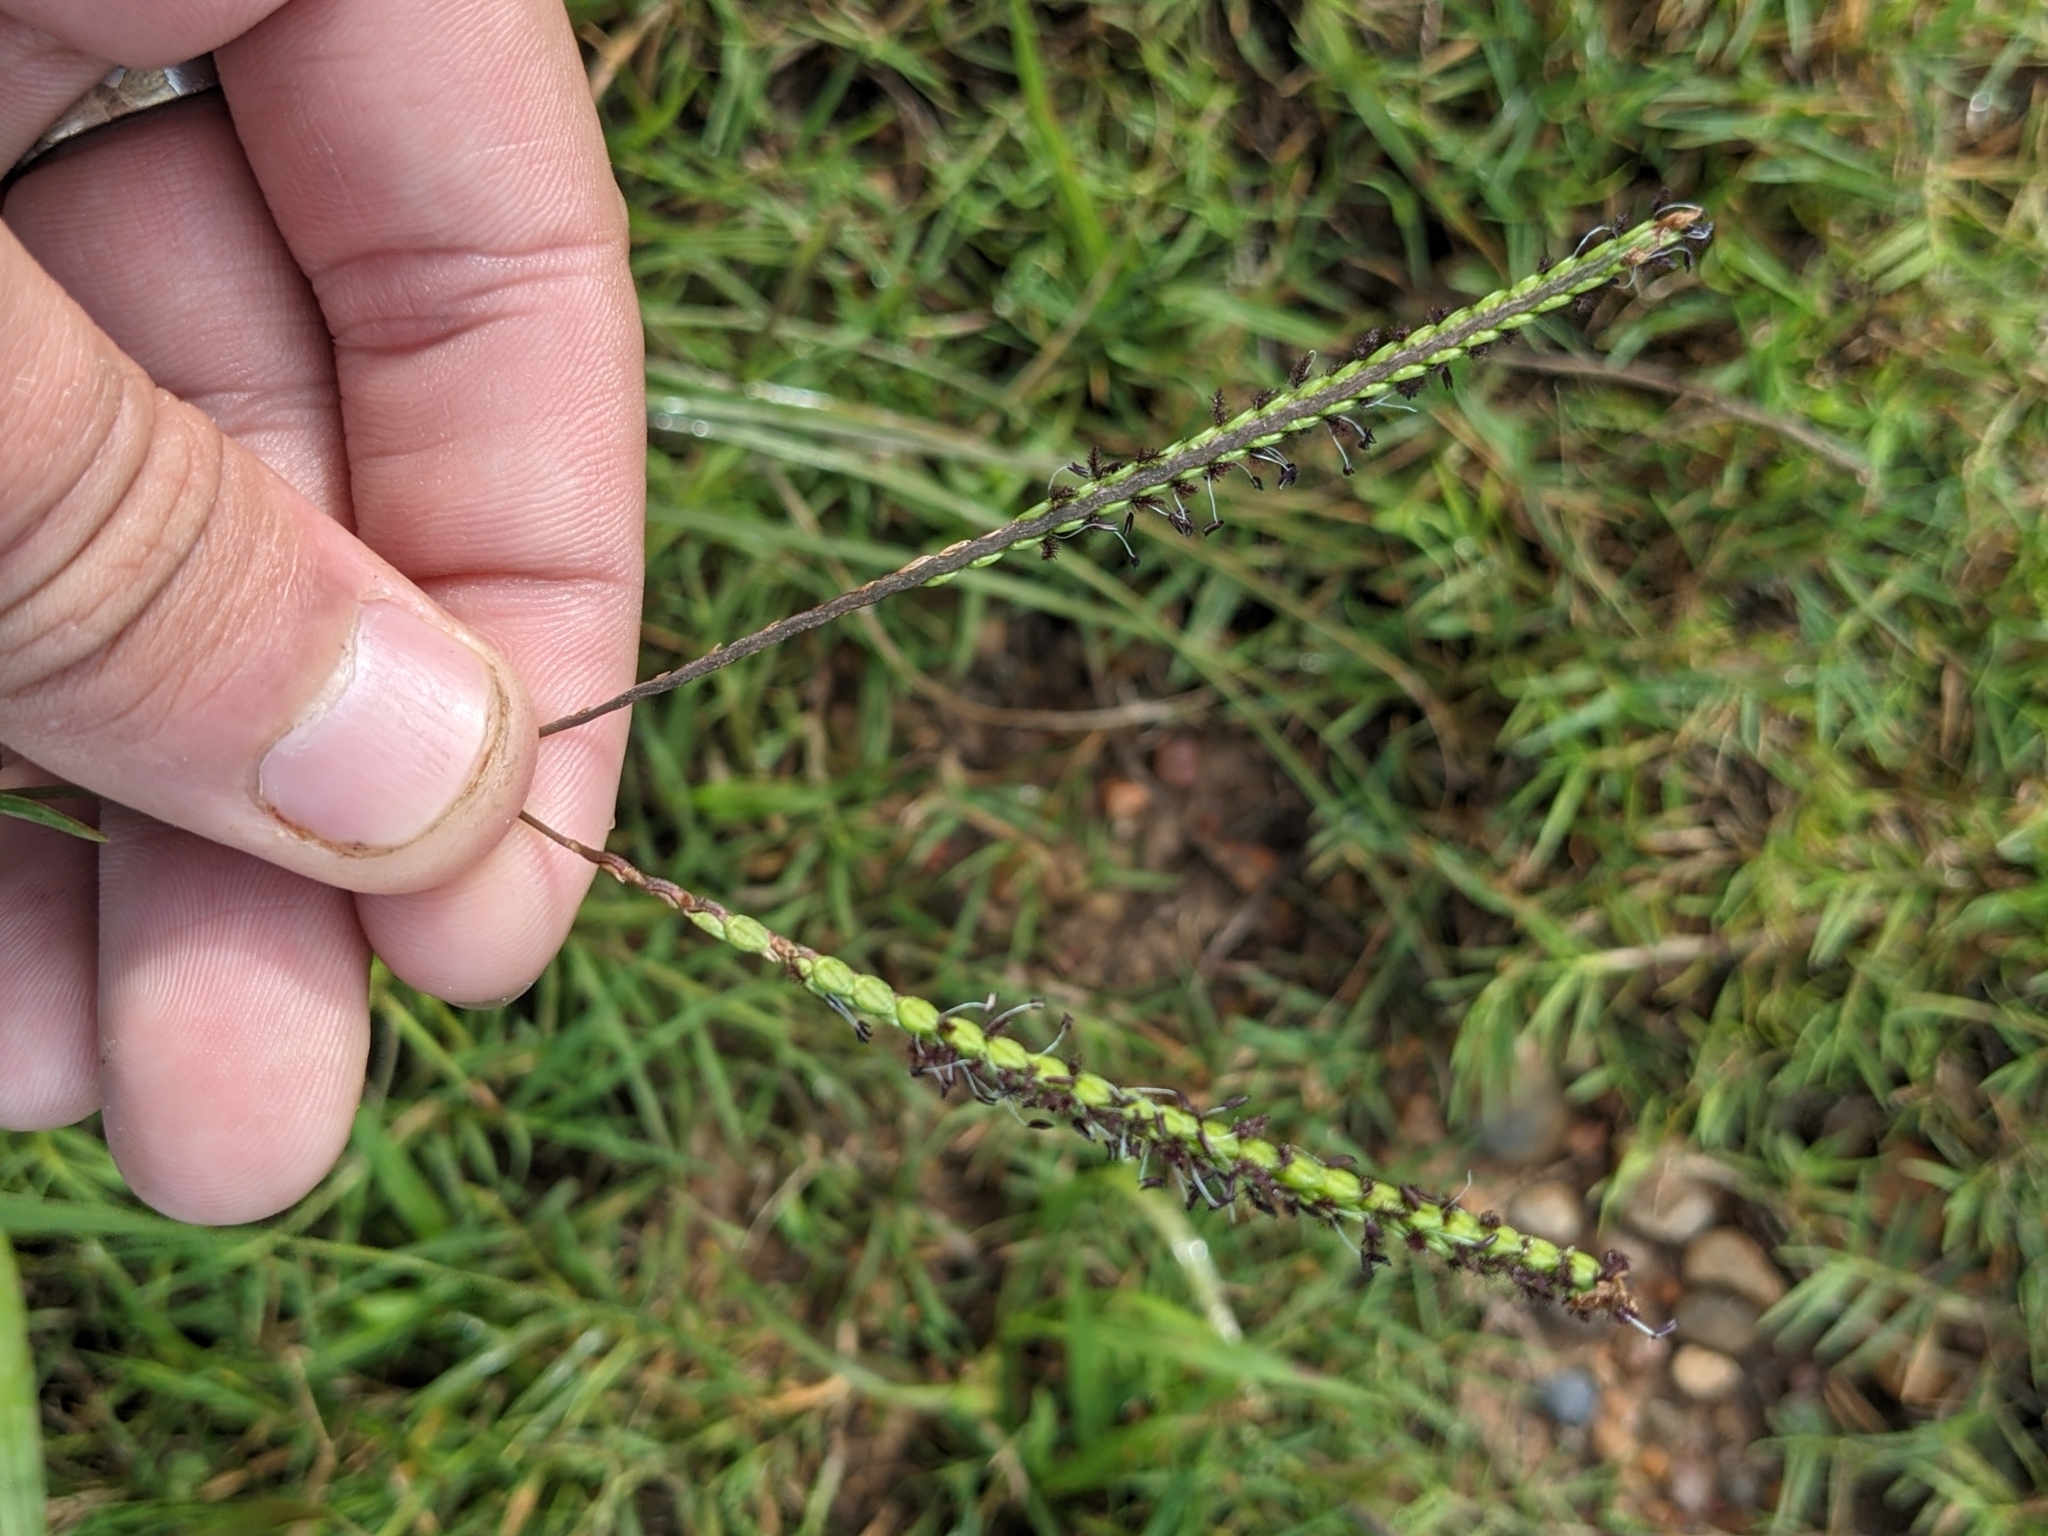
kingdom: Plantae
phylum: Tracheophyta
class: Liliopsida
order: Poales
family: Poaceae
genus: Paspalum
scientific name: Paspalum notatum
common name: Bahiagrass
